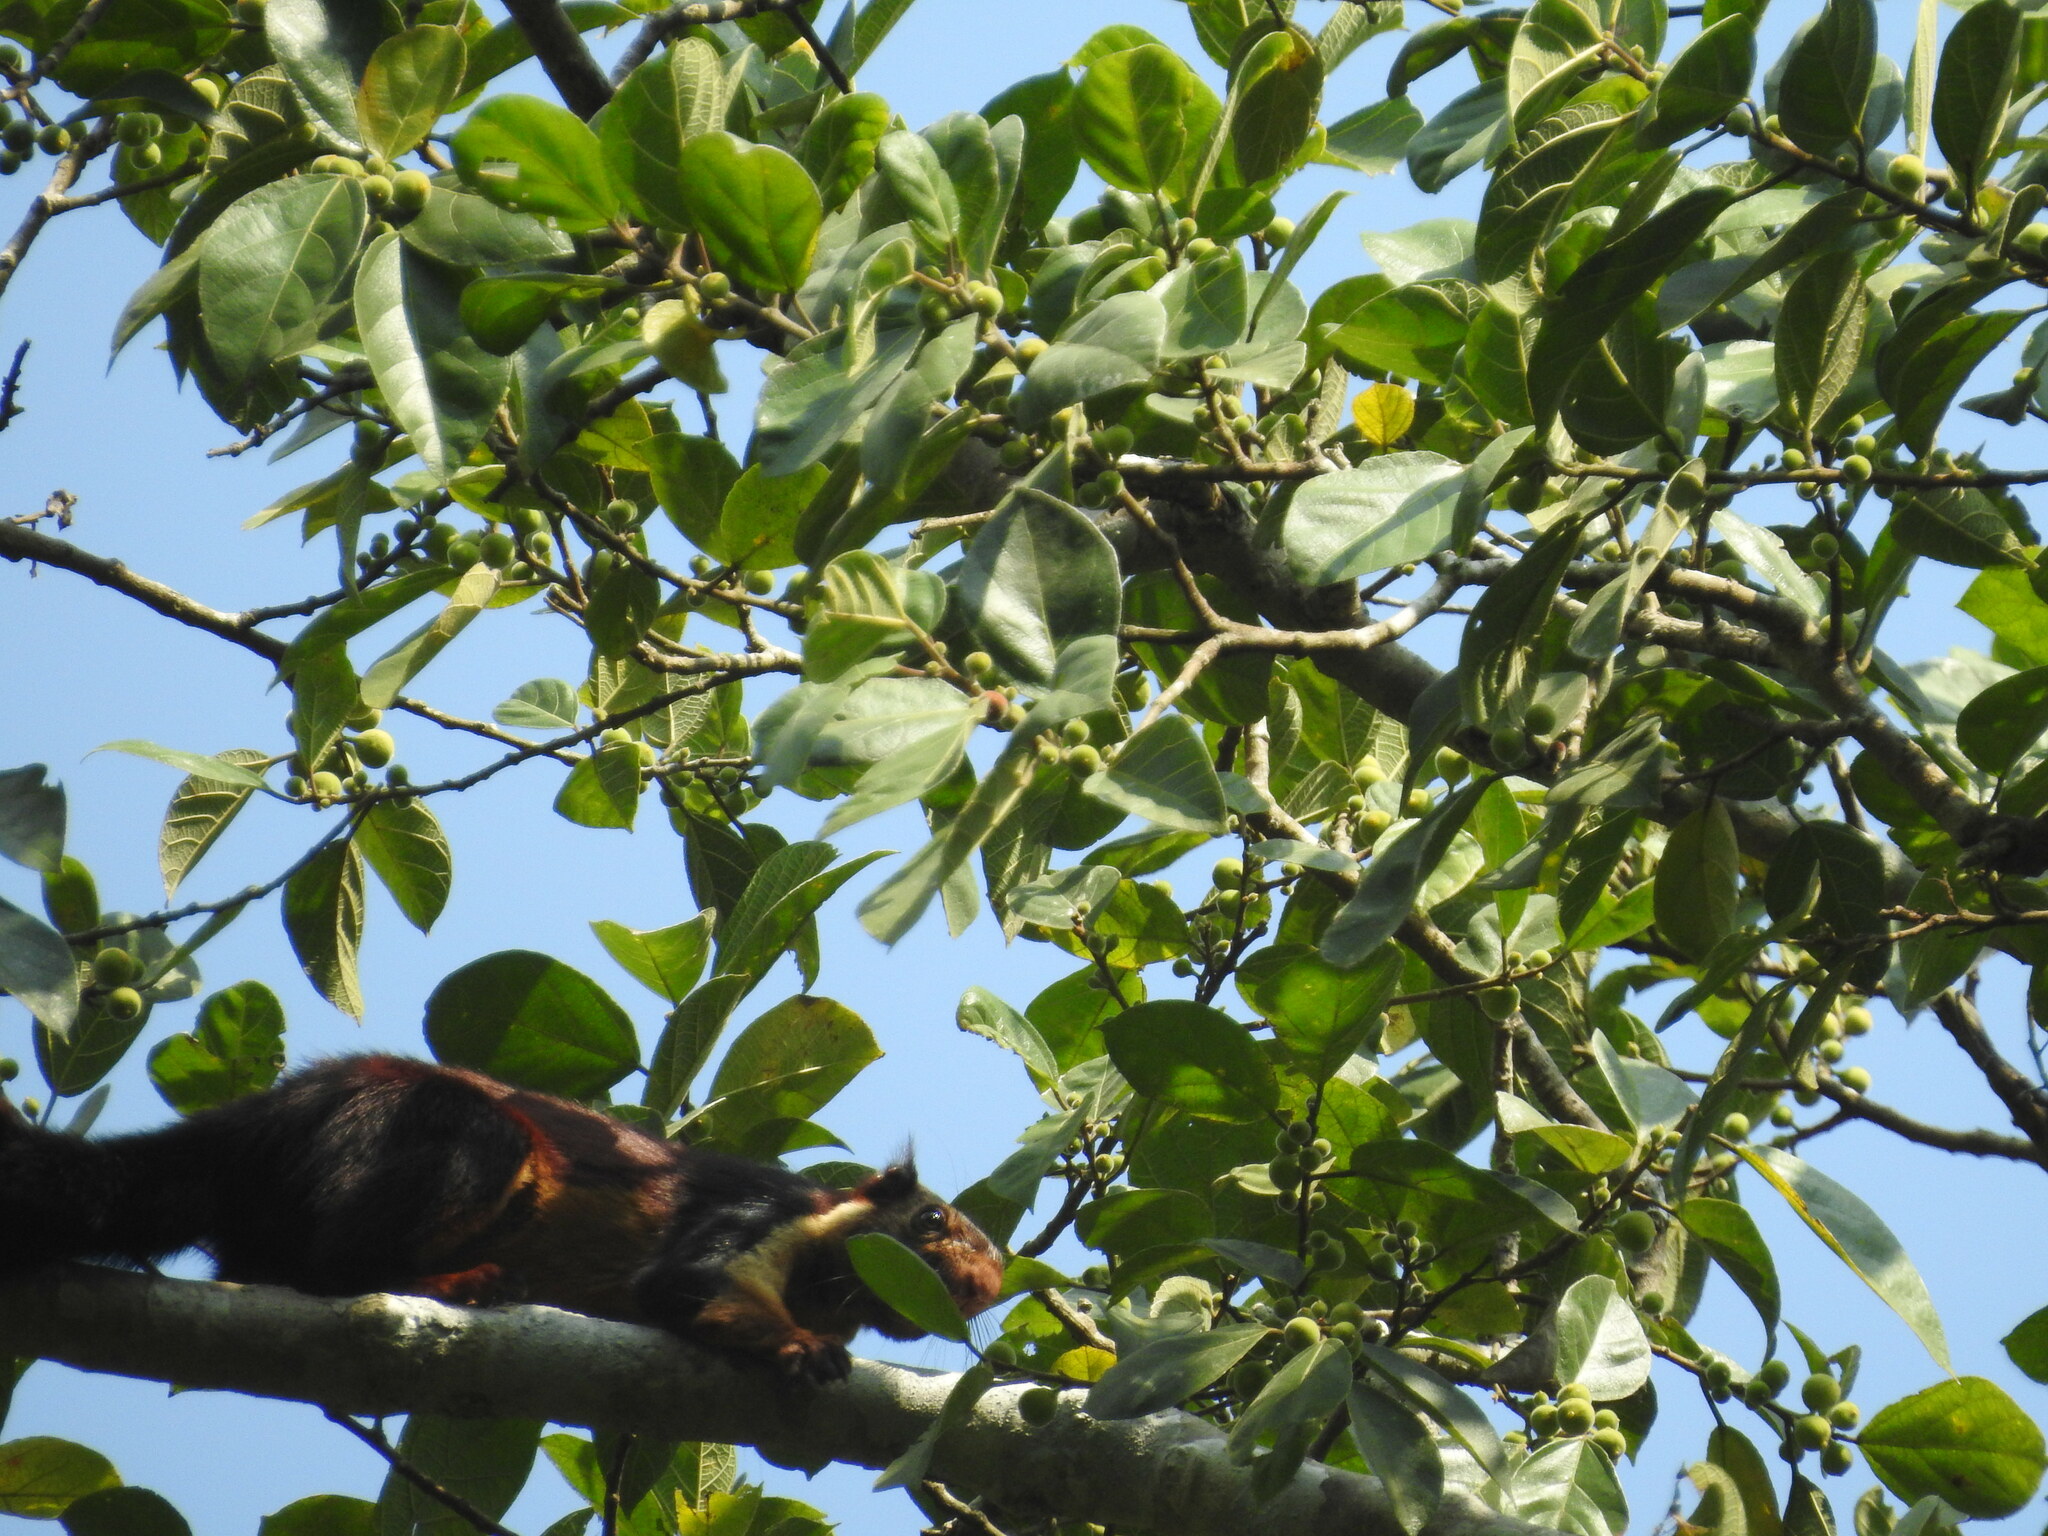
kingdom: Animalia
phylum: Chordata
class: Mammalia
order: Rodentia
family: Sciuridae
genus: Ratufa
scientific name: Ratufa indica
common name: Indian giant squirrel
